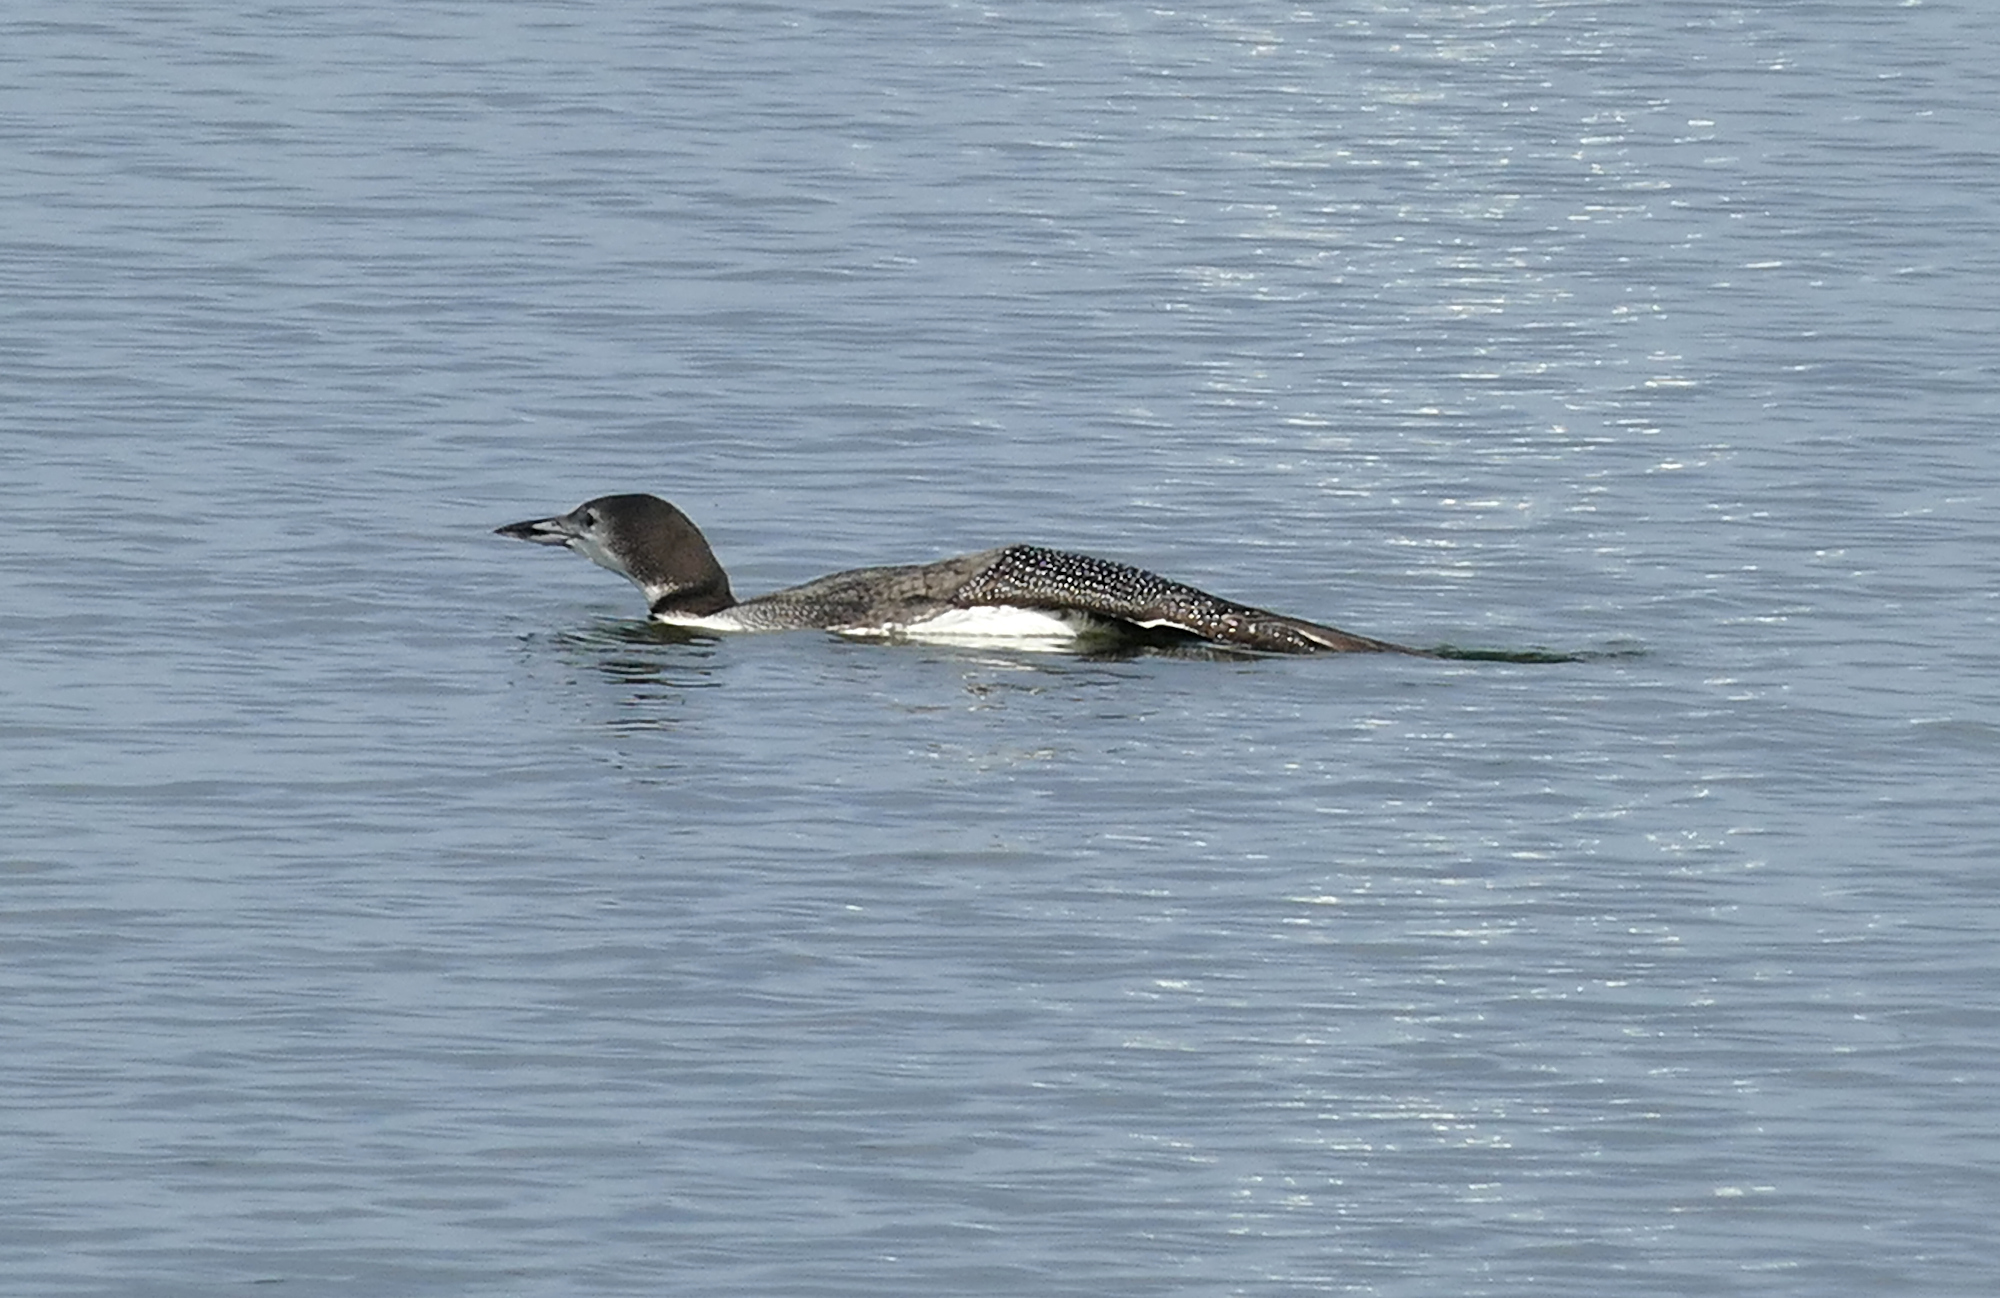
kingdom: Animalia
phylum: Chordata
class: Aves
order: Gaviiformes
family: Gaviidae
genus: Gavia
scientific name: Gavia immer
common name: Common loon
